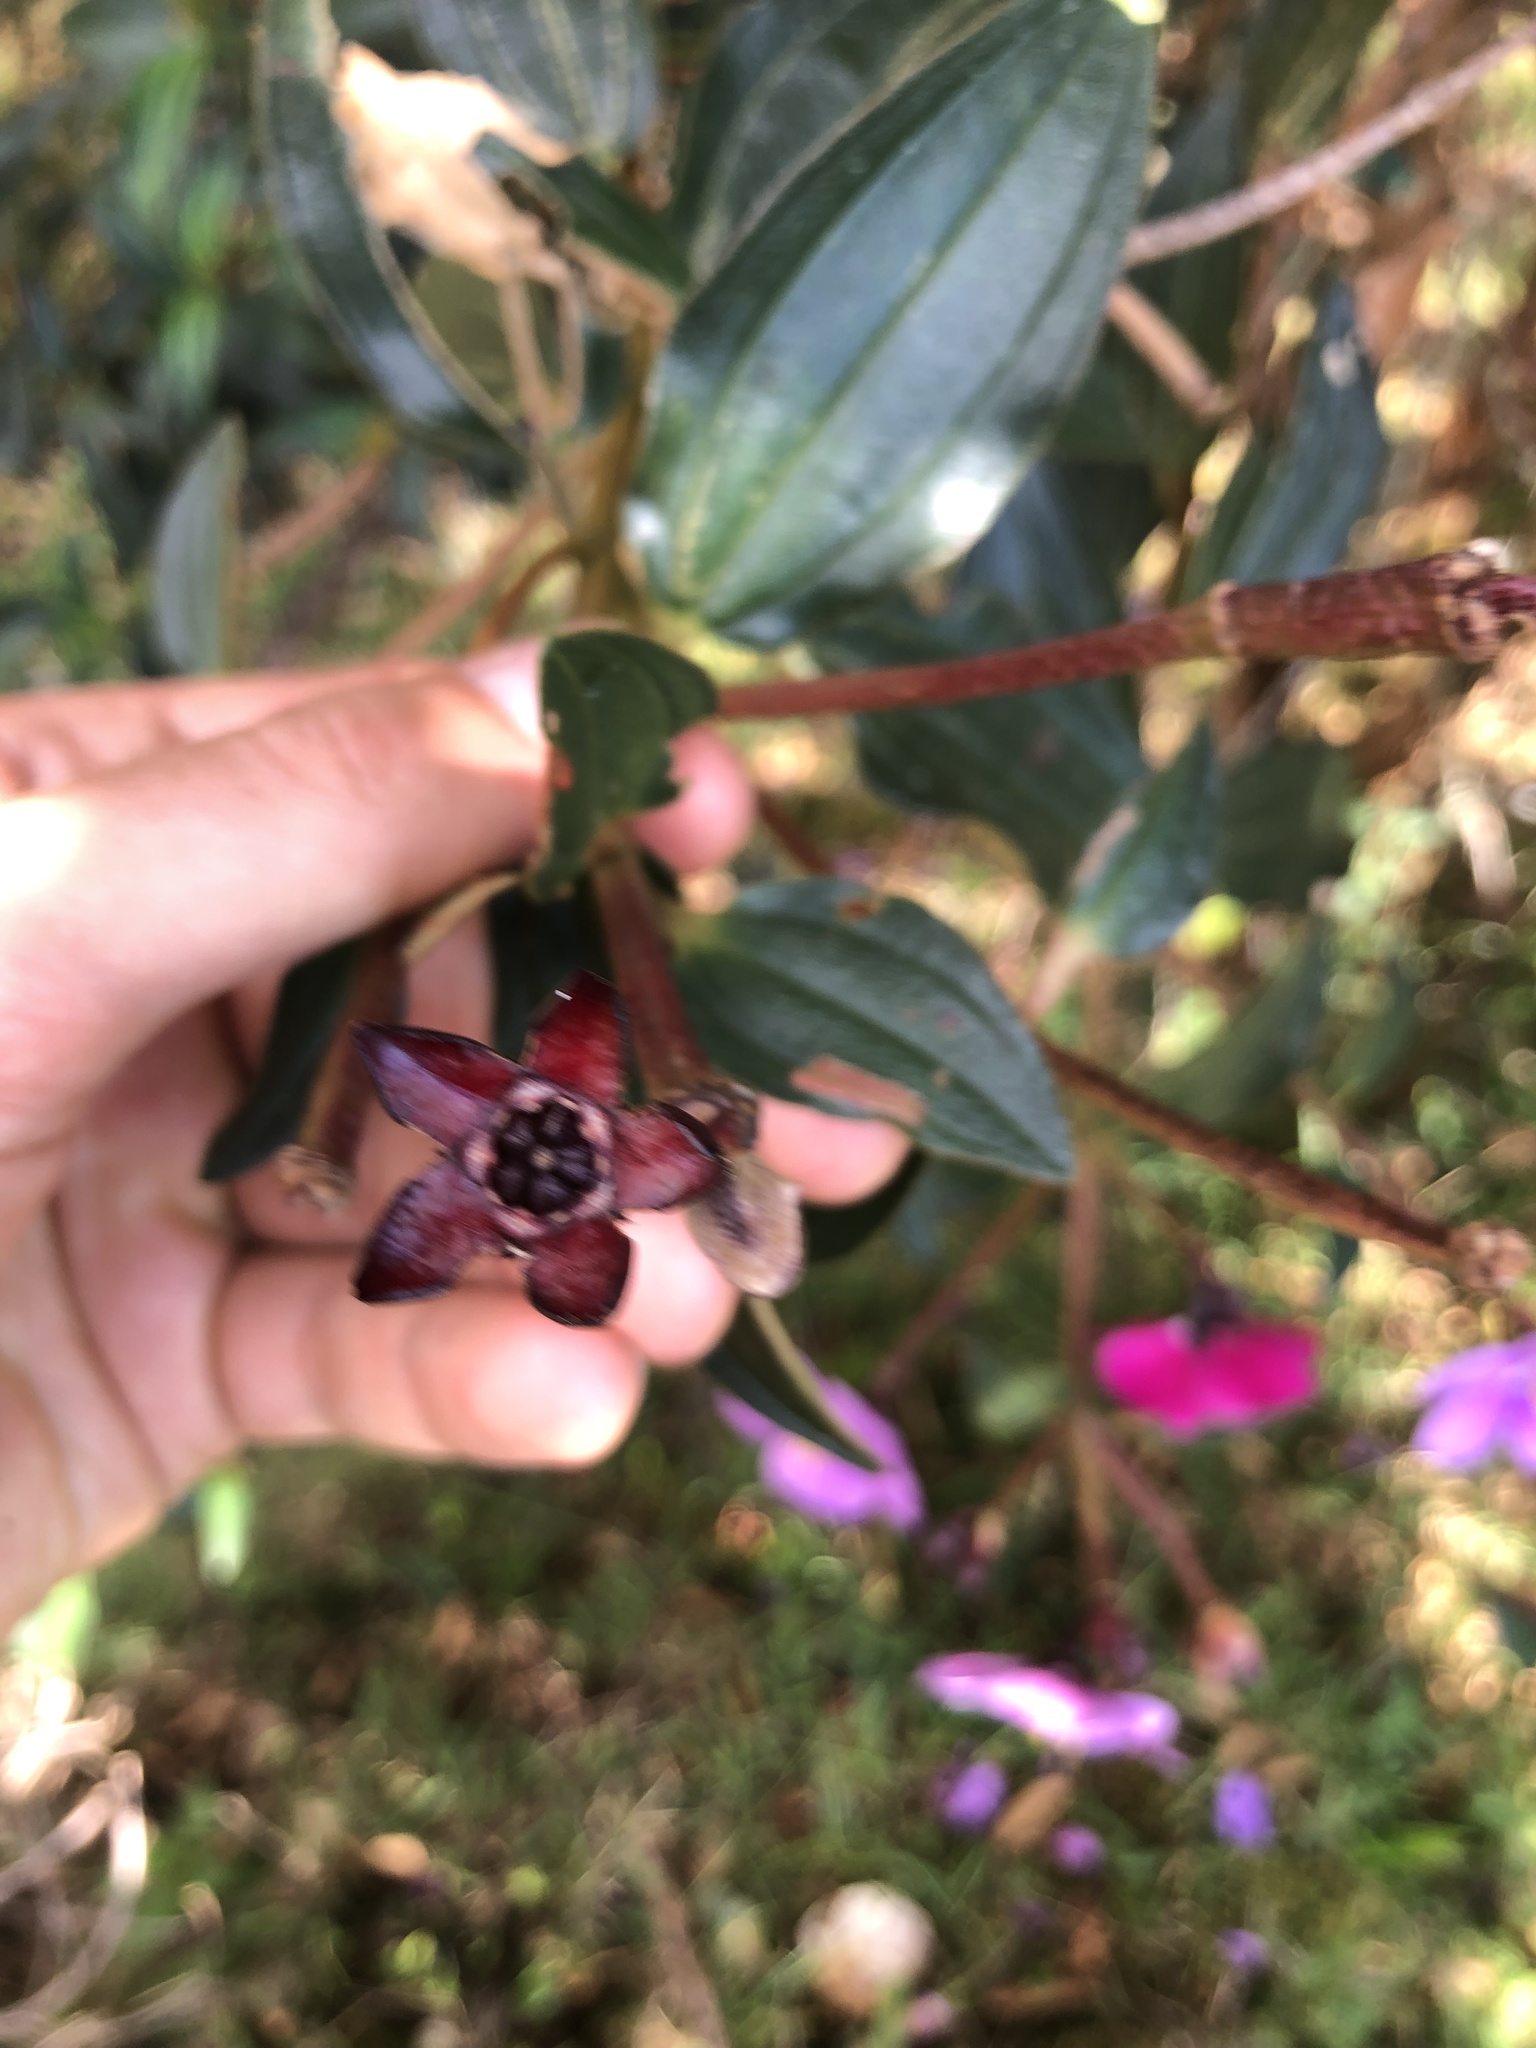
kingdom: Plantae
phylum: Tracheophyta
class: Magnoliopsida
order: Myrtales
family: Melastomataceae
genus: Andesanthus
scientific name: Andesanthus lepidotus
